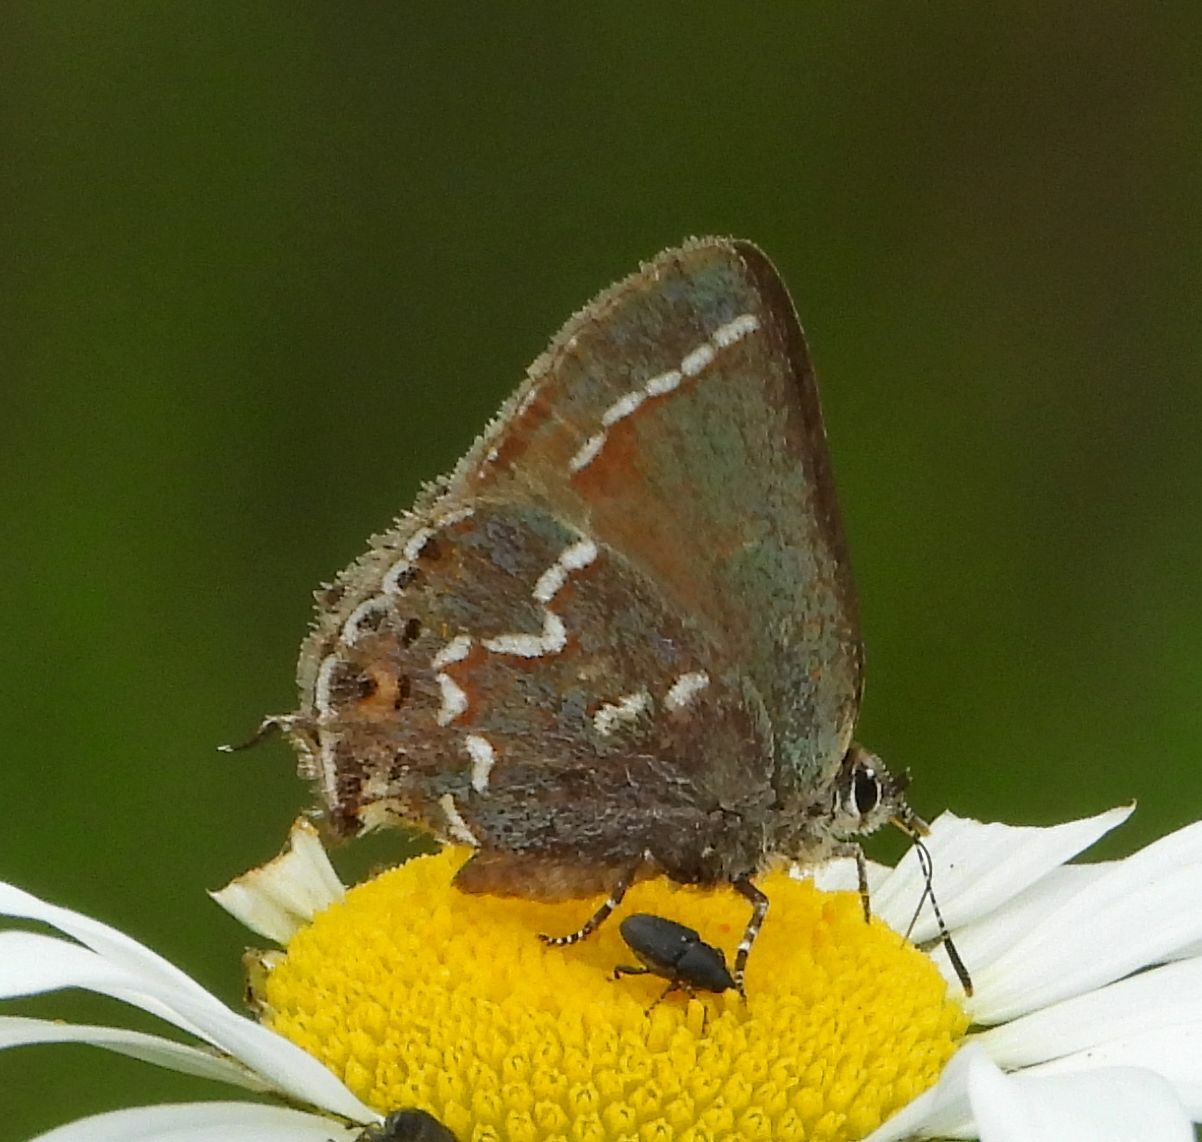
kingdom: Animalia
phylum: Arthropoda
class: Insecta
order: Lepidoptera
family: Lycaenidae
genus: Mitoura
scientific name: Mitoura gryneus
